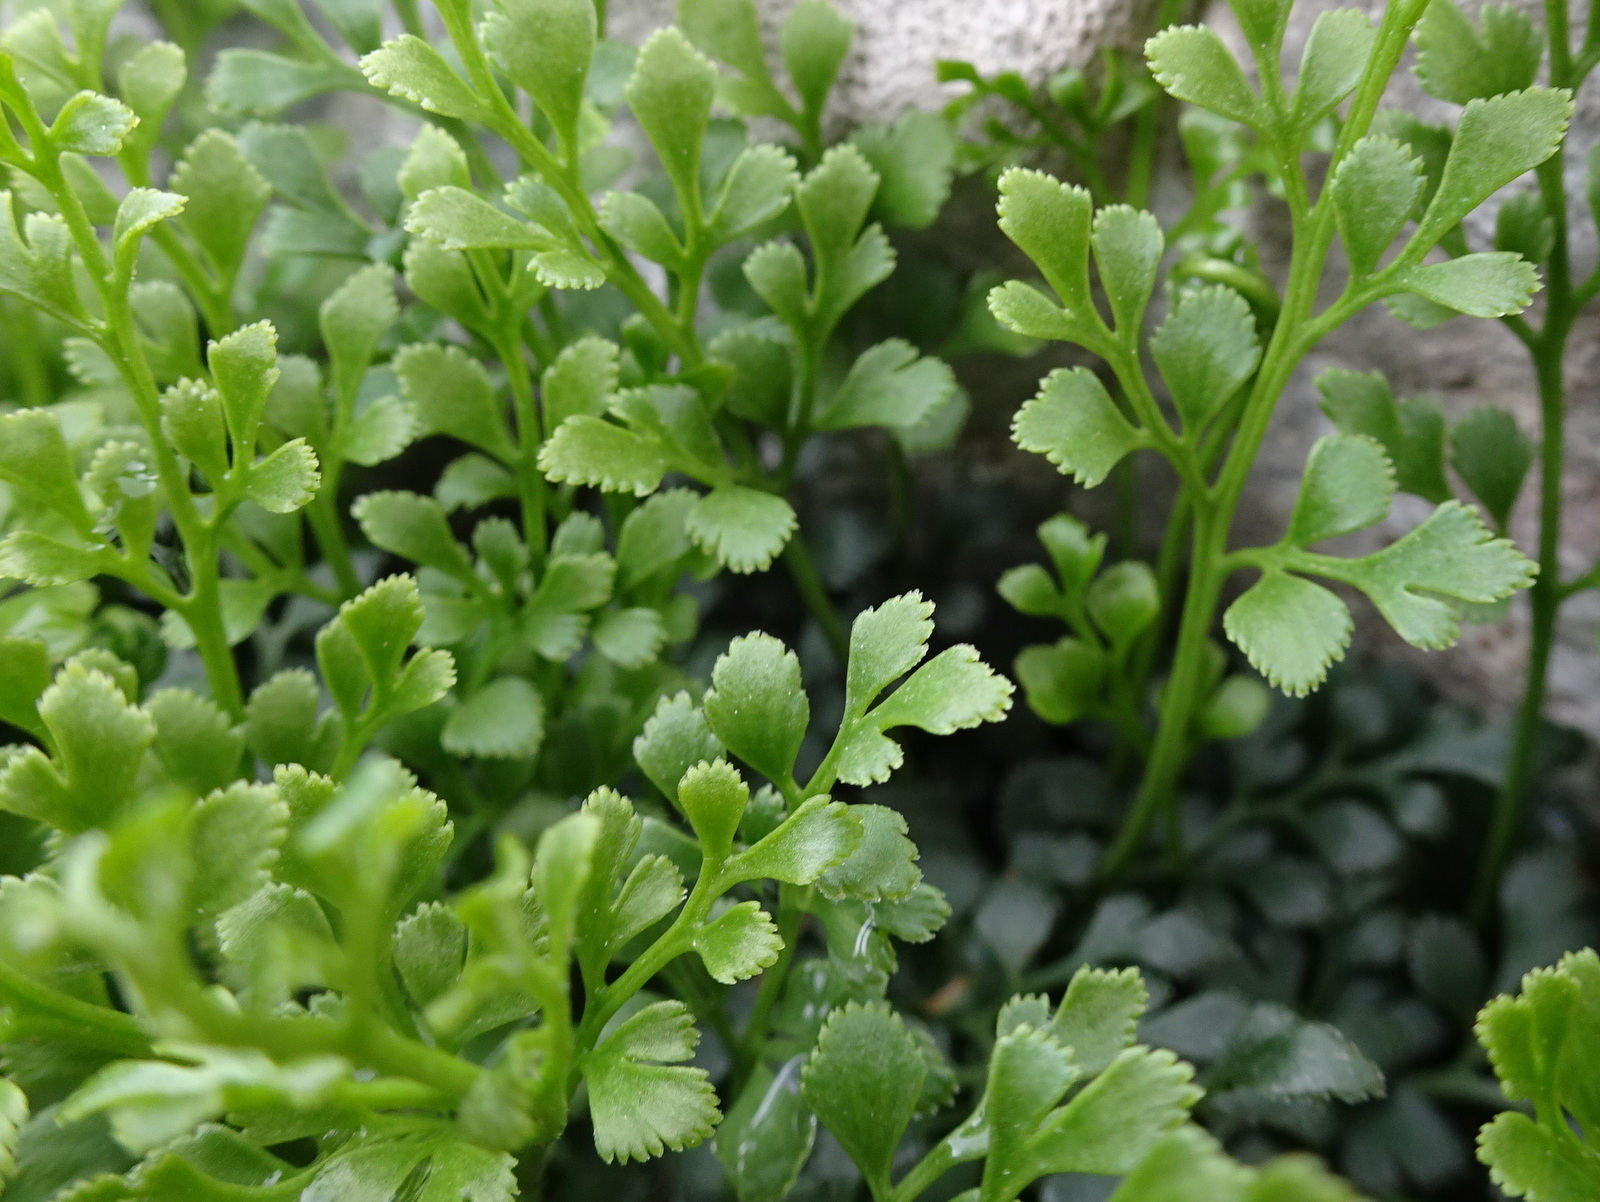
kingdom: Plantae
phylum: Tracheophyta
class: Polypodiopsida
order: Polypodiales
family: Aspleniaceae
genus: Asplenium
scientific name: Asplenium ruta-muraria
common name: Wall-rue
